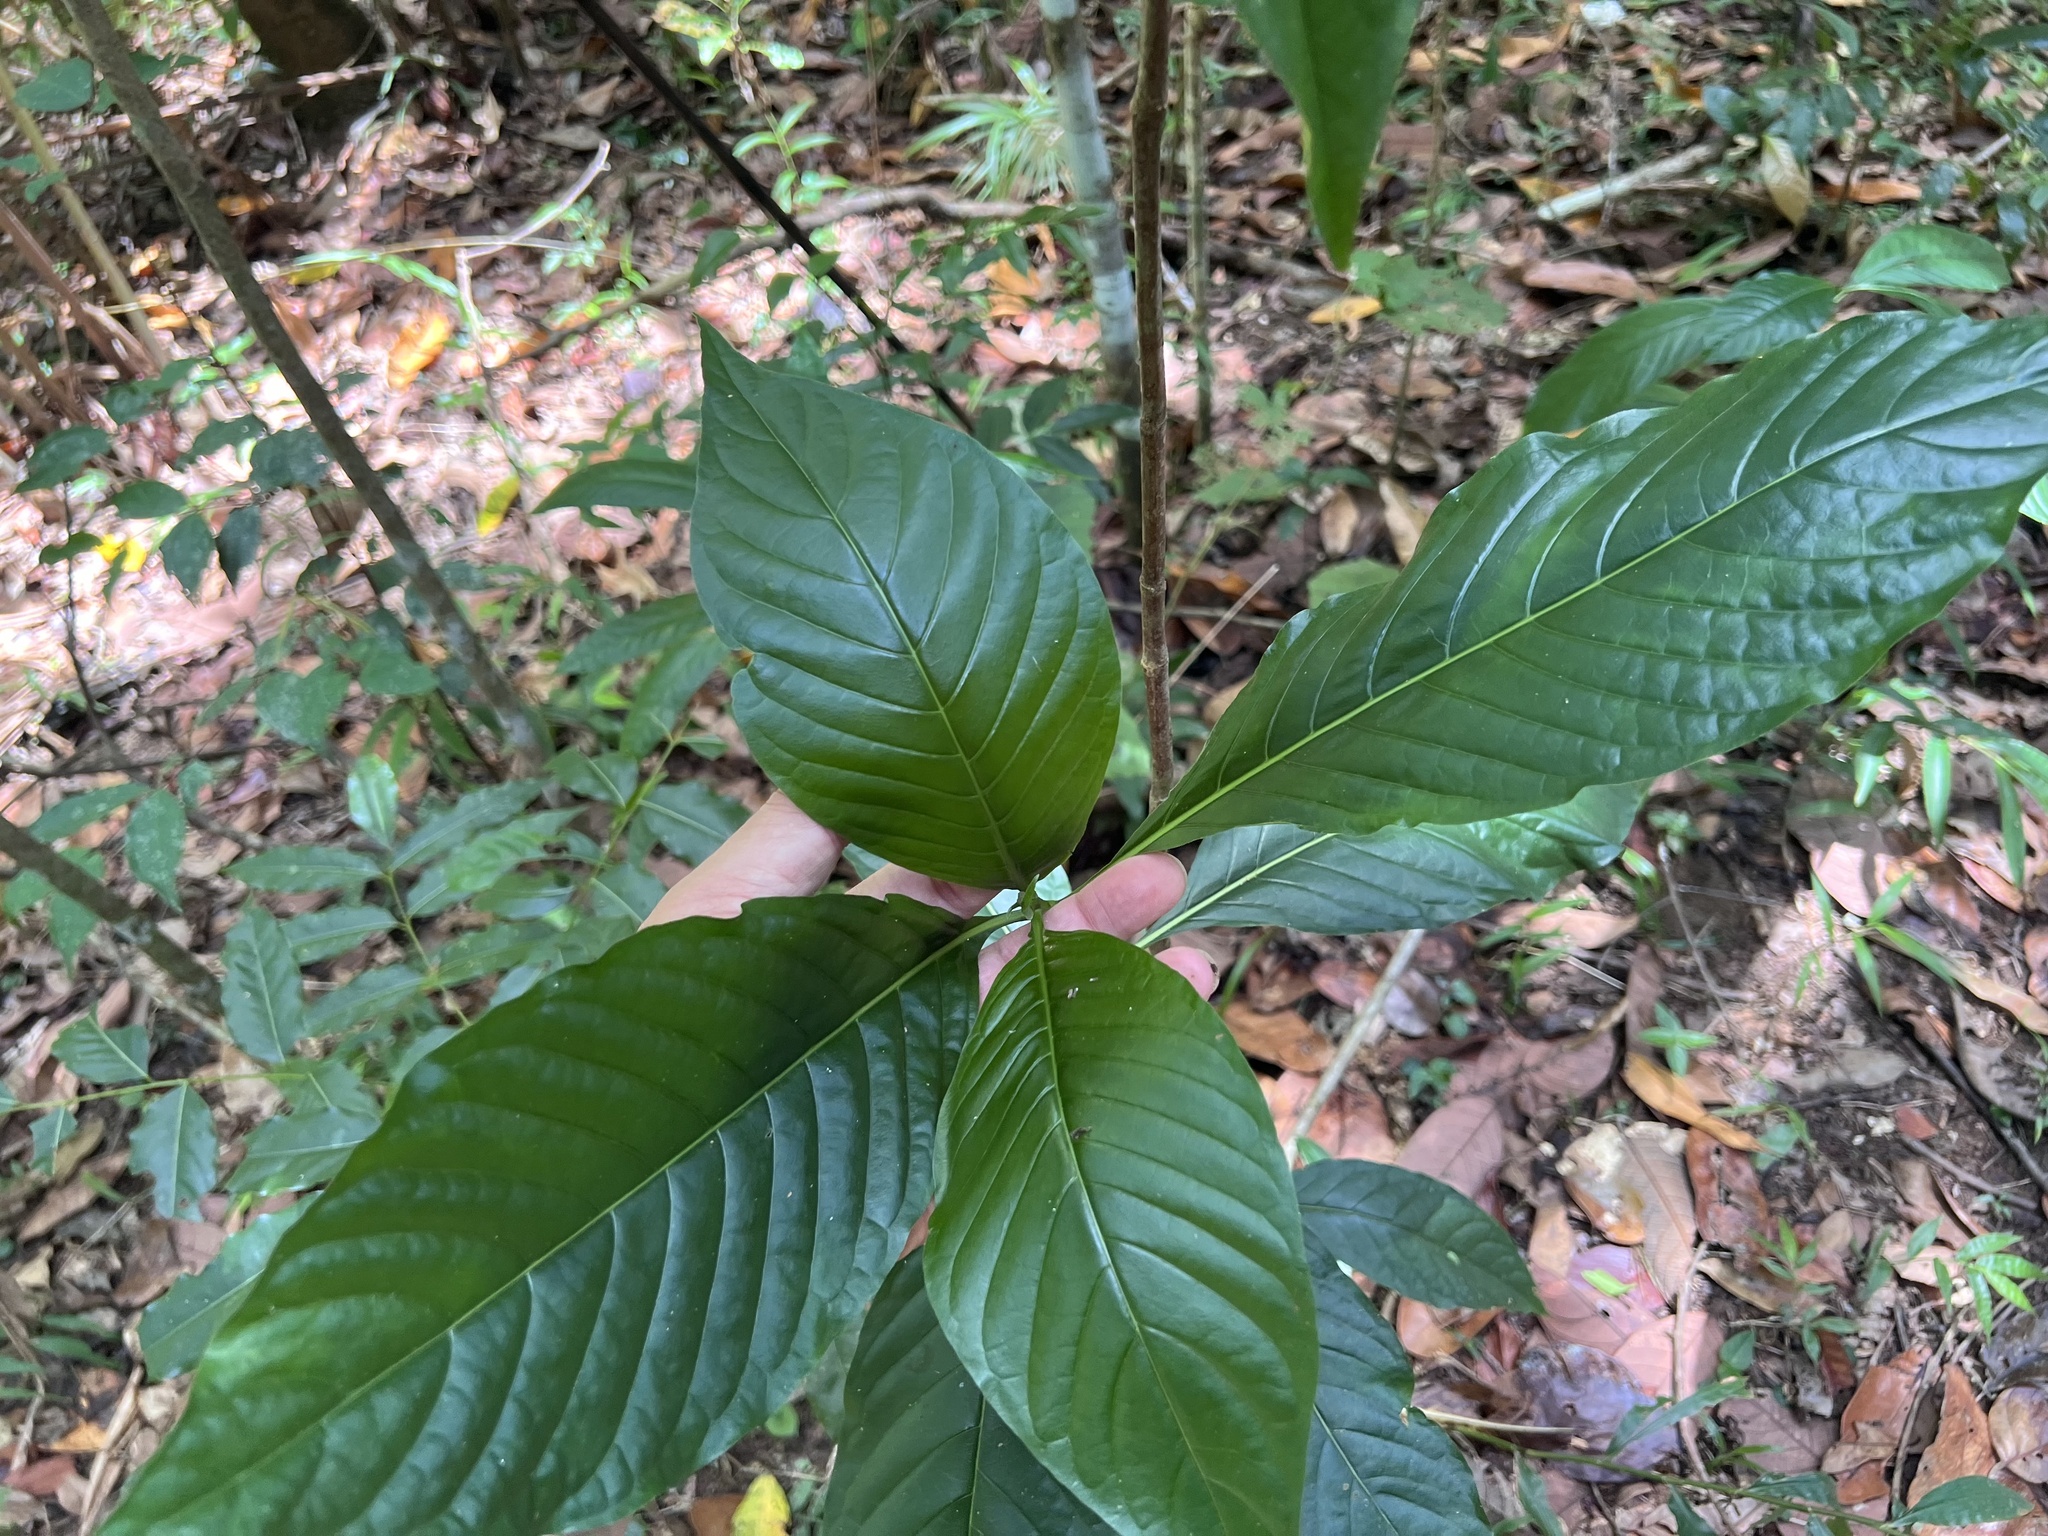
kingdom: Plantae
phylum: Tracheophyta
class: Magnoliopsida
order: Gentianales
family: Rubiaceae
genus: Tarenna
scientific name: Tarenna dallachiana
